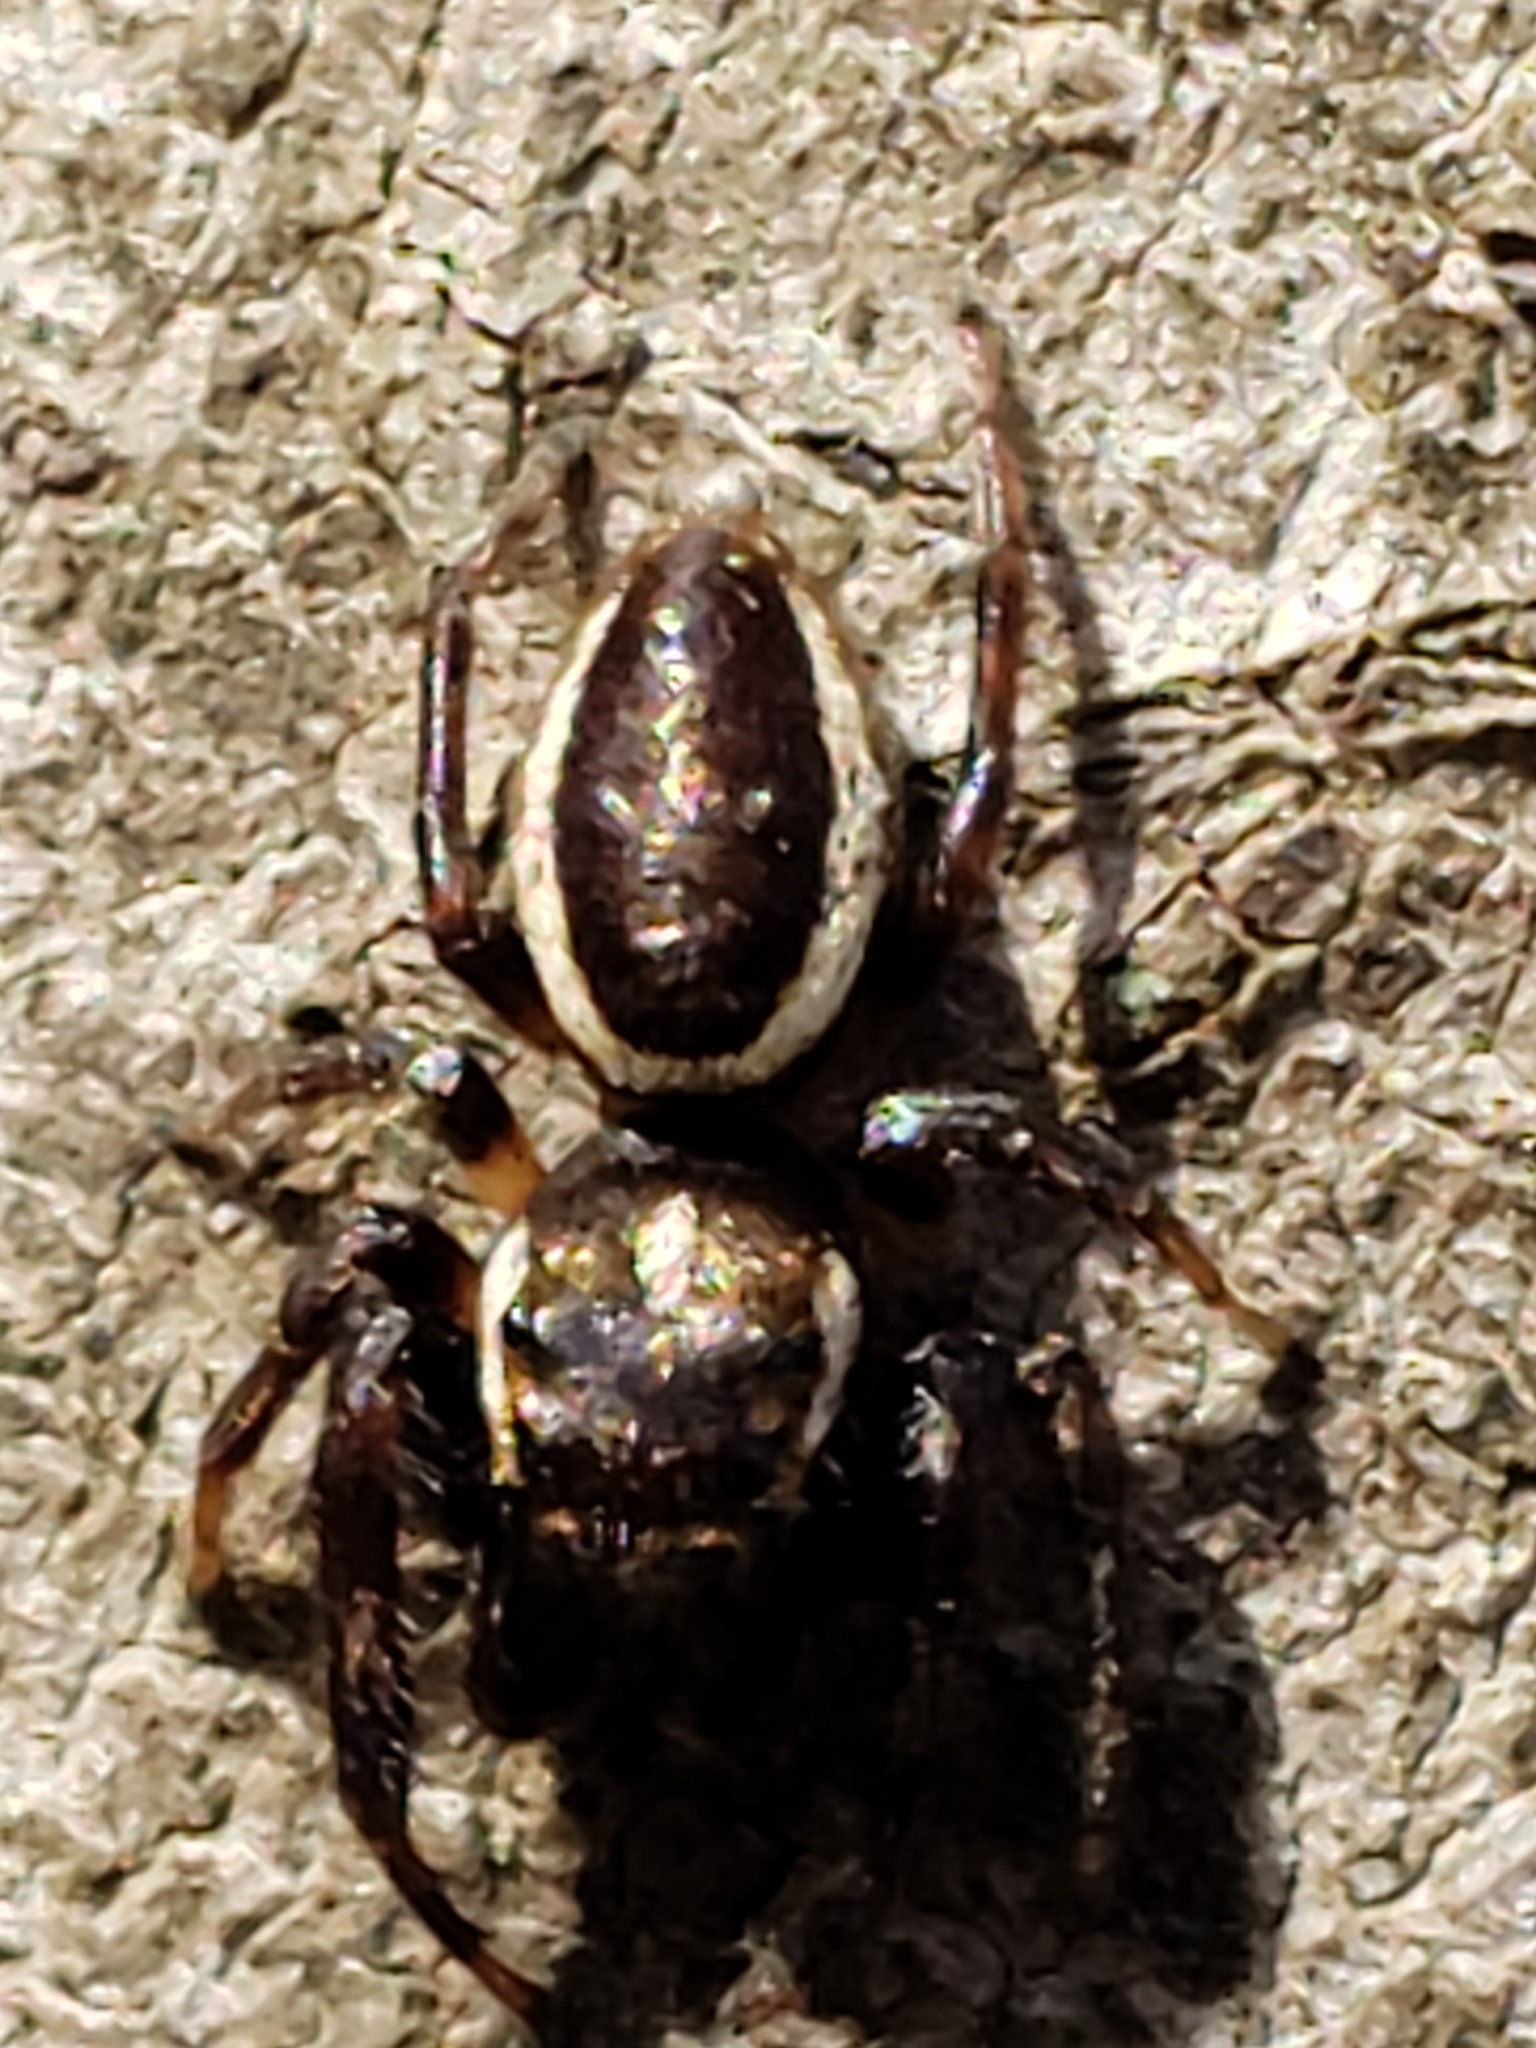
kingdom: Animalia
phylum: Arthropoda
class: Arachnida
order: Araneae
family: Salticidae
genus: Eris
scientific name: Eris militaris
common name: Bronze jumper
